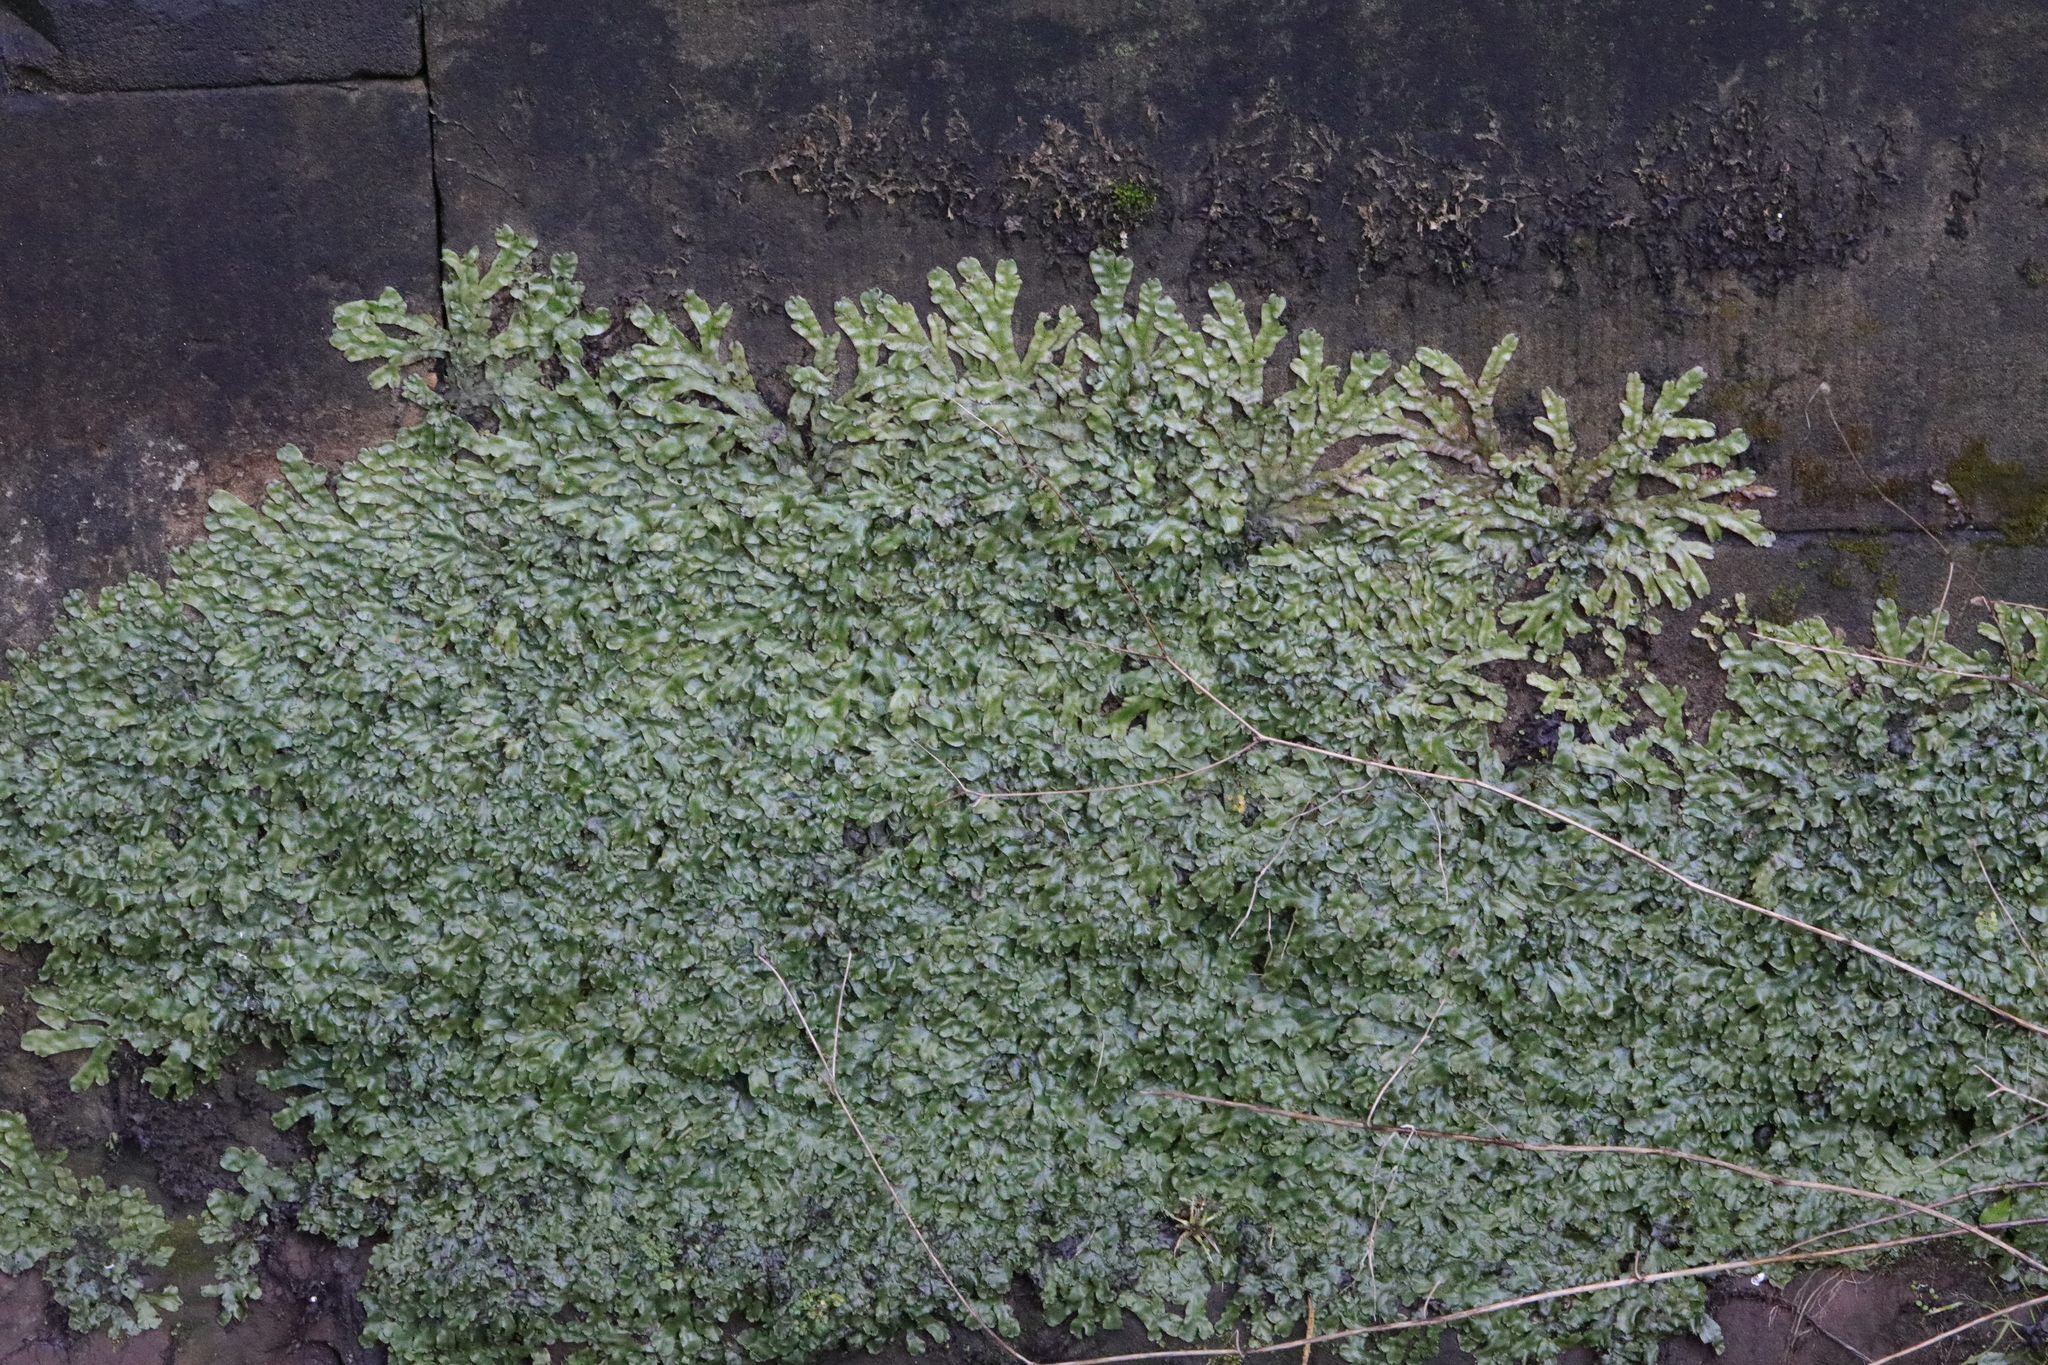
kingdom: Plantae
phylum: Marchantiophyta
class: Marchantiopsida
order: Marchantiales
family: Conocephalaceae
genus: Conocephalum
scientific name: Conocephalum conicum
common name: Great scented liverwort
